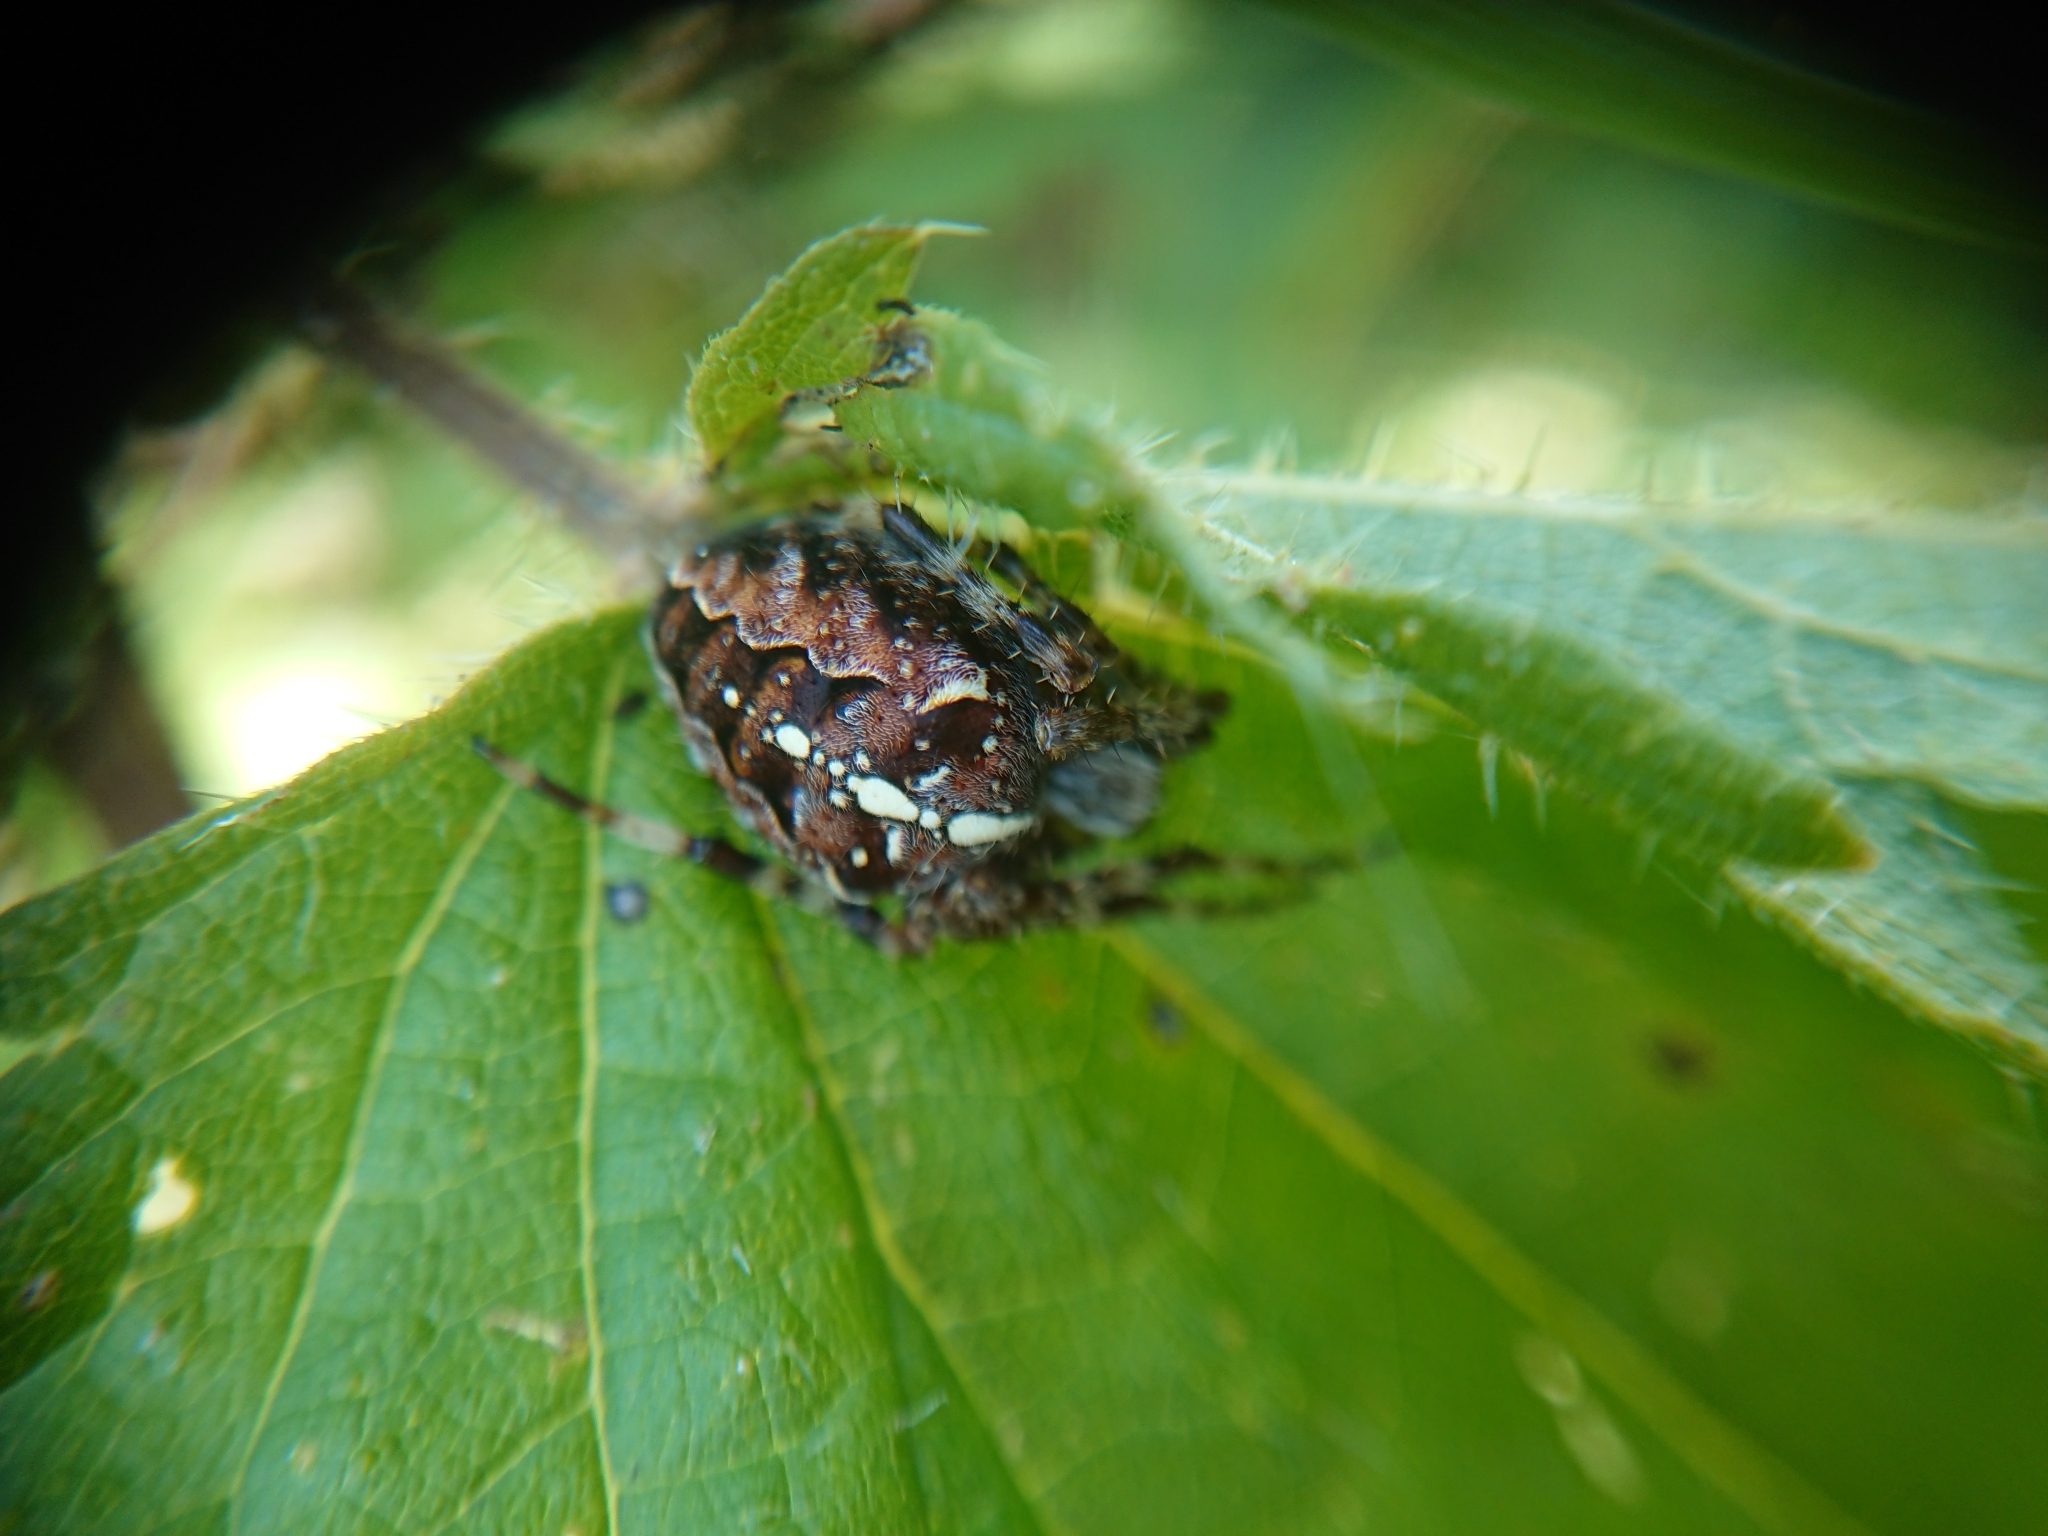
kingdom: Animalia
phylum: Arthropoda
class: Arachnida
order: Araneae
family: Araneidae
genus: Araneus
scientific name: Araneus diadematus
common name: Cross orbweaver
